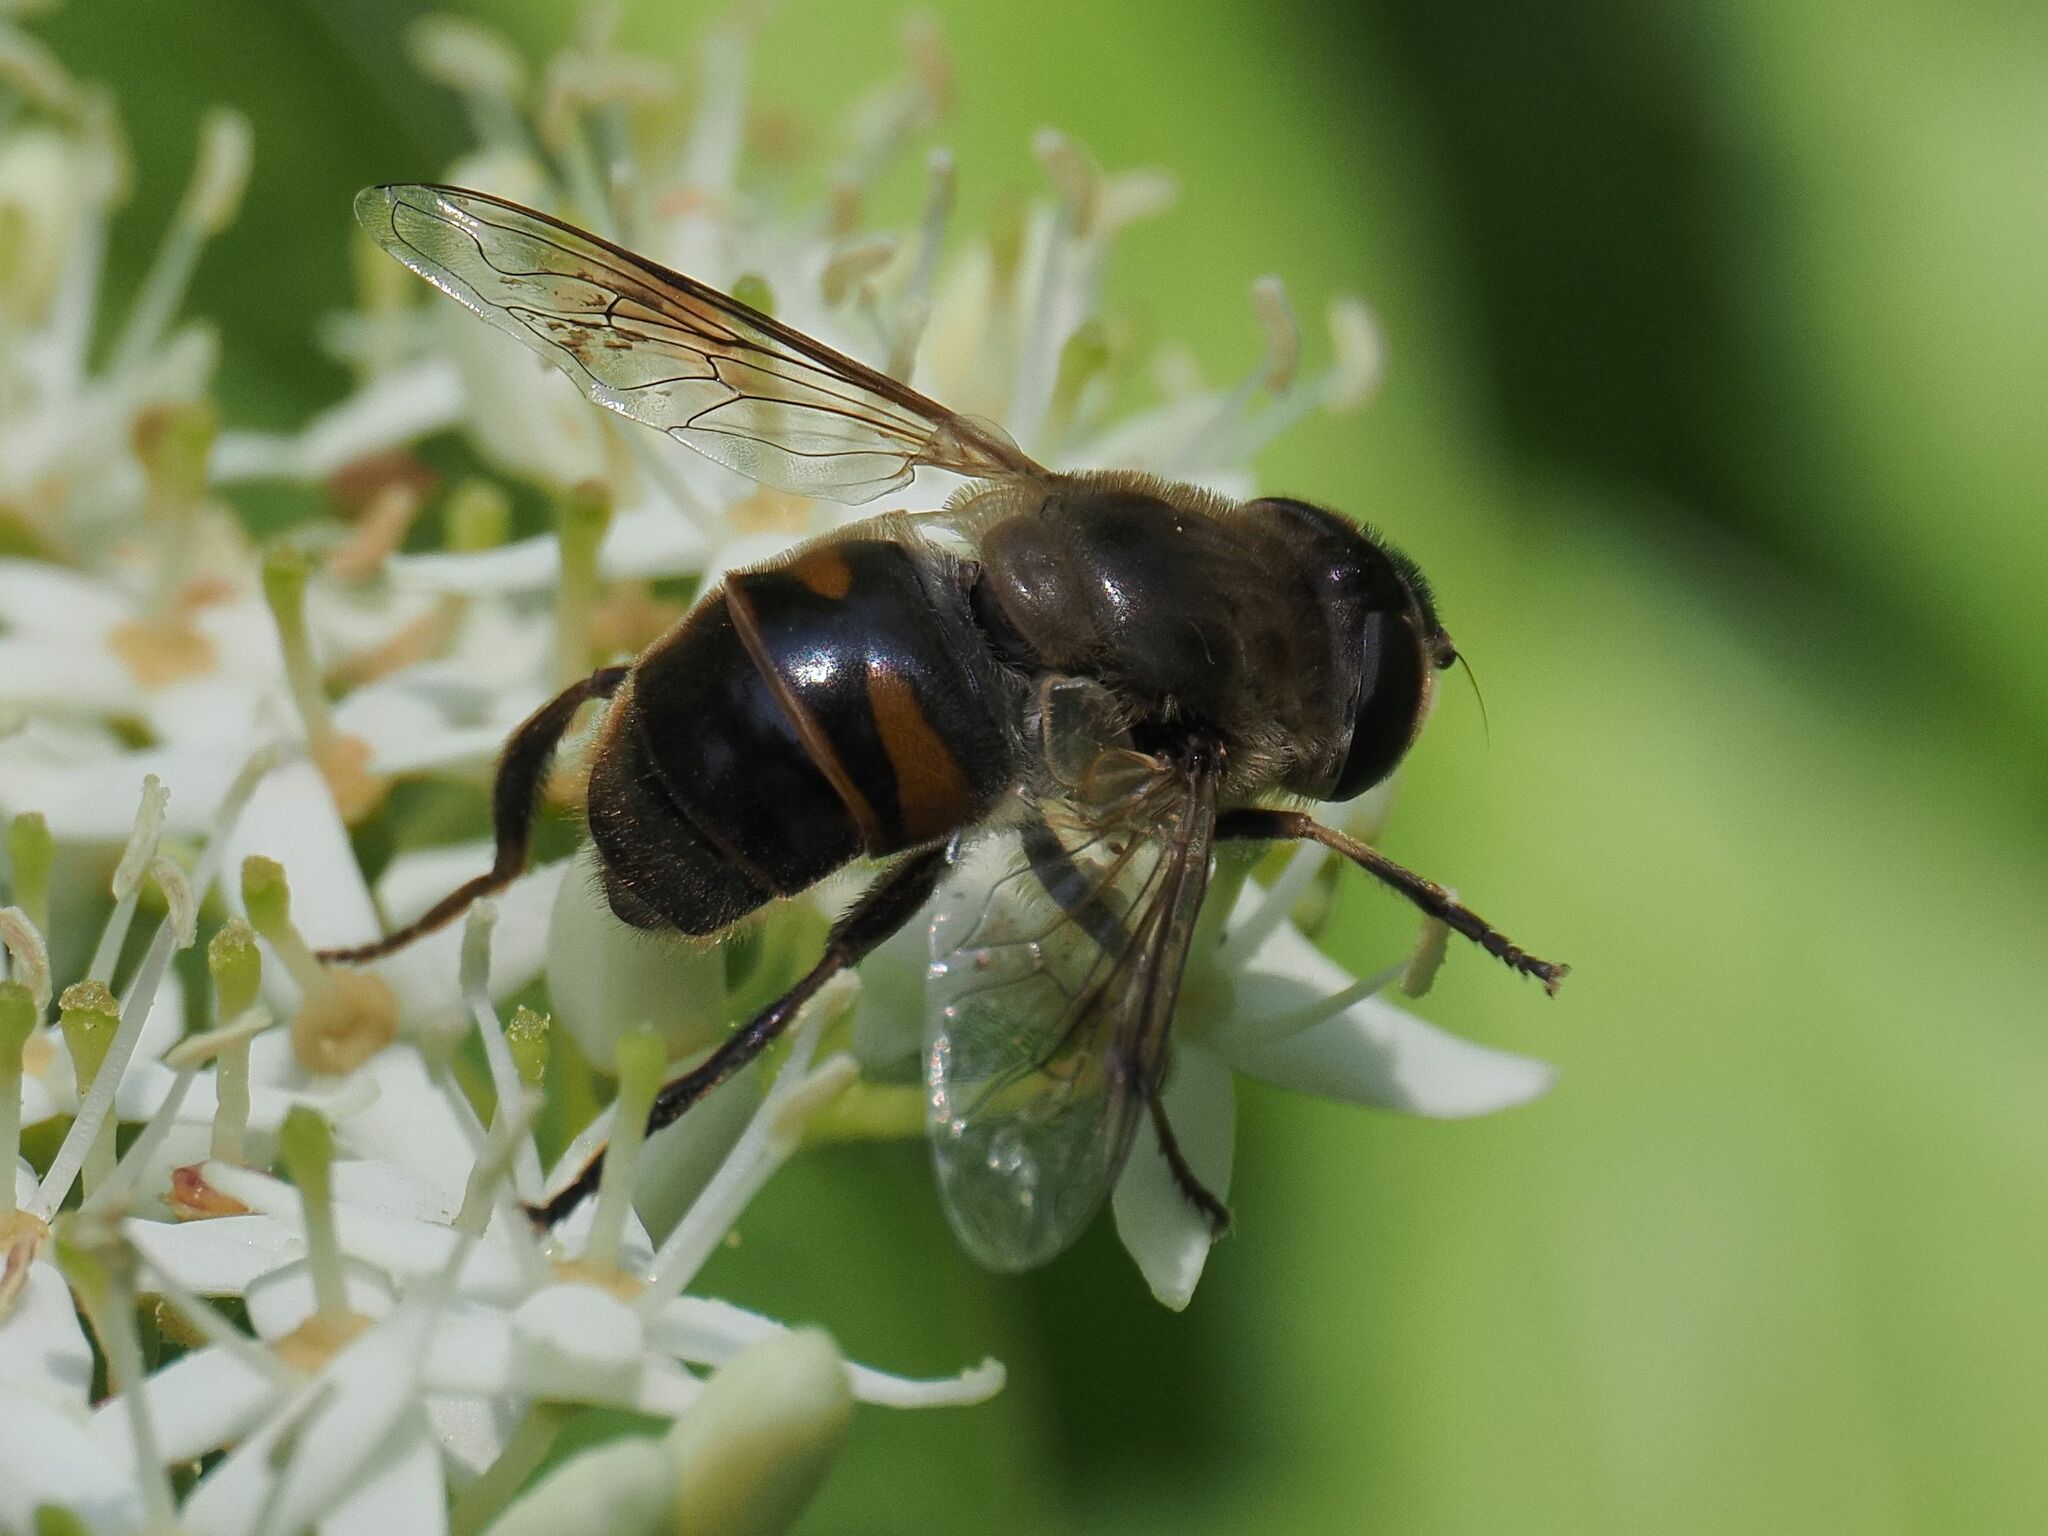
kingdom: Animalia
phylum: Arthropoda
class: Insecta
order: Diptera
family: Syrphidae
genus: Eristalis
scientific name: Eristalis tenax
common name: Drone fly
